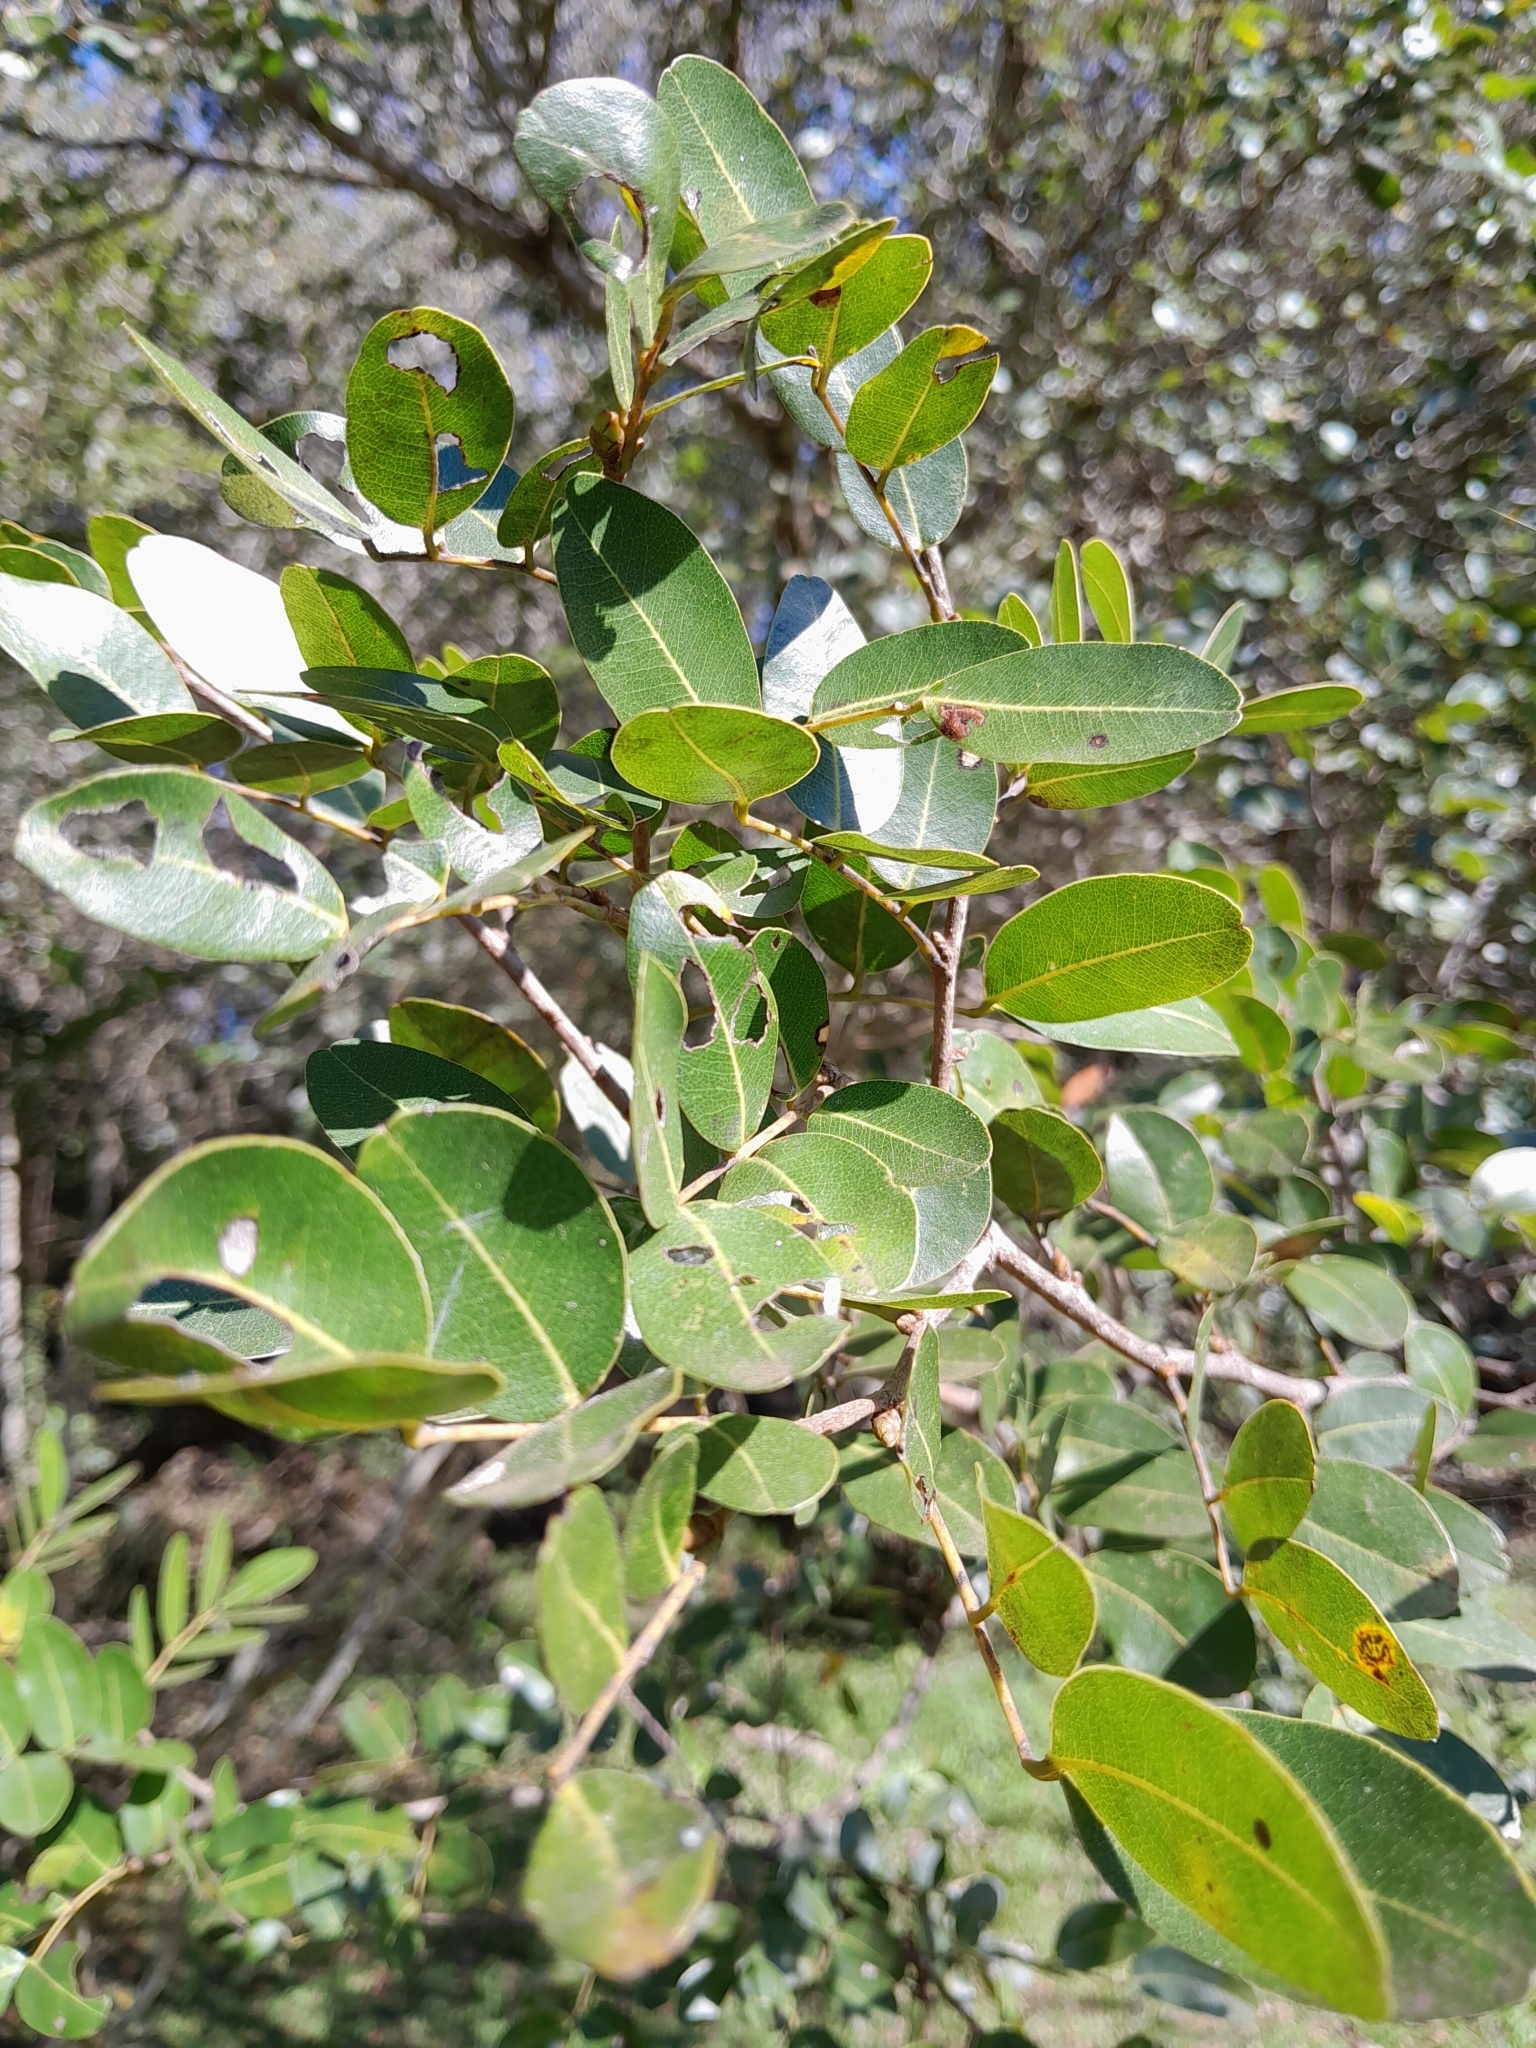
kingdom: Plantae
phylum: Tracheophyta
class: Magnoliopsida
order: Fabales
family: Fabaceae
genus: Copaifera
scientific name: Copaifera langsdorffii
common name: Brazilian diesel tree
